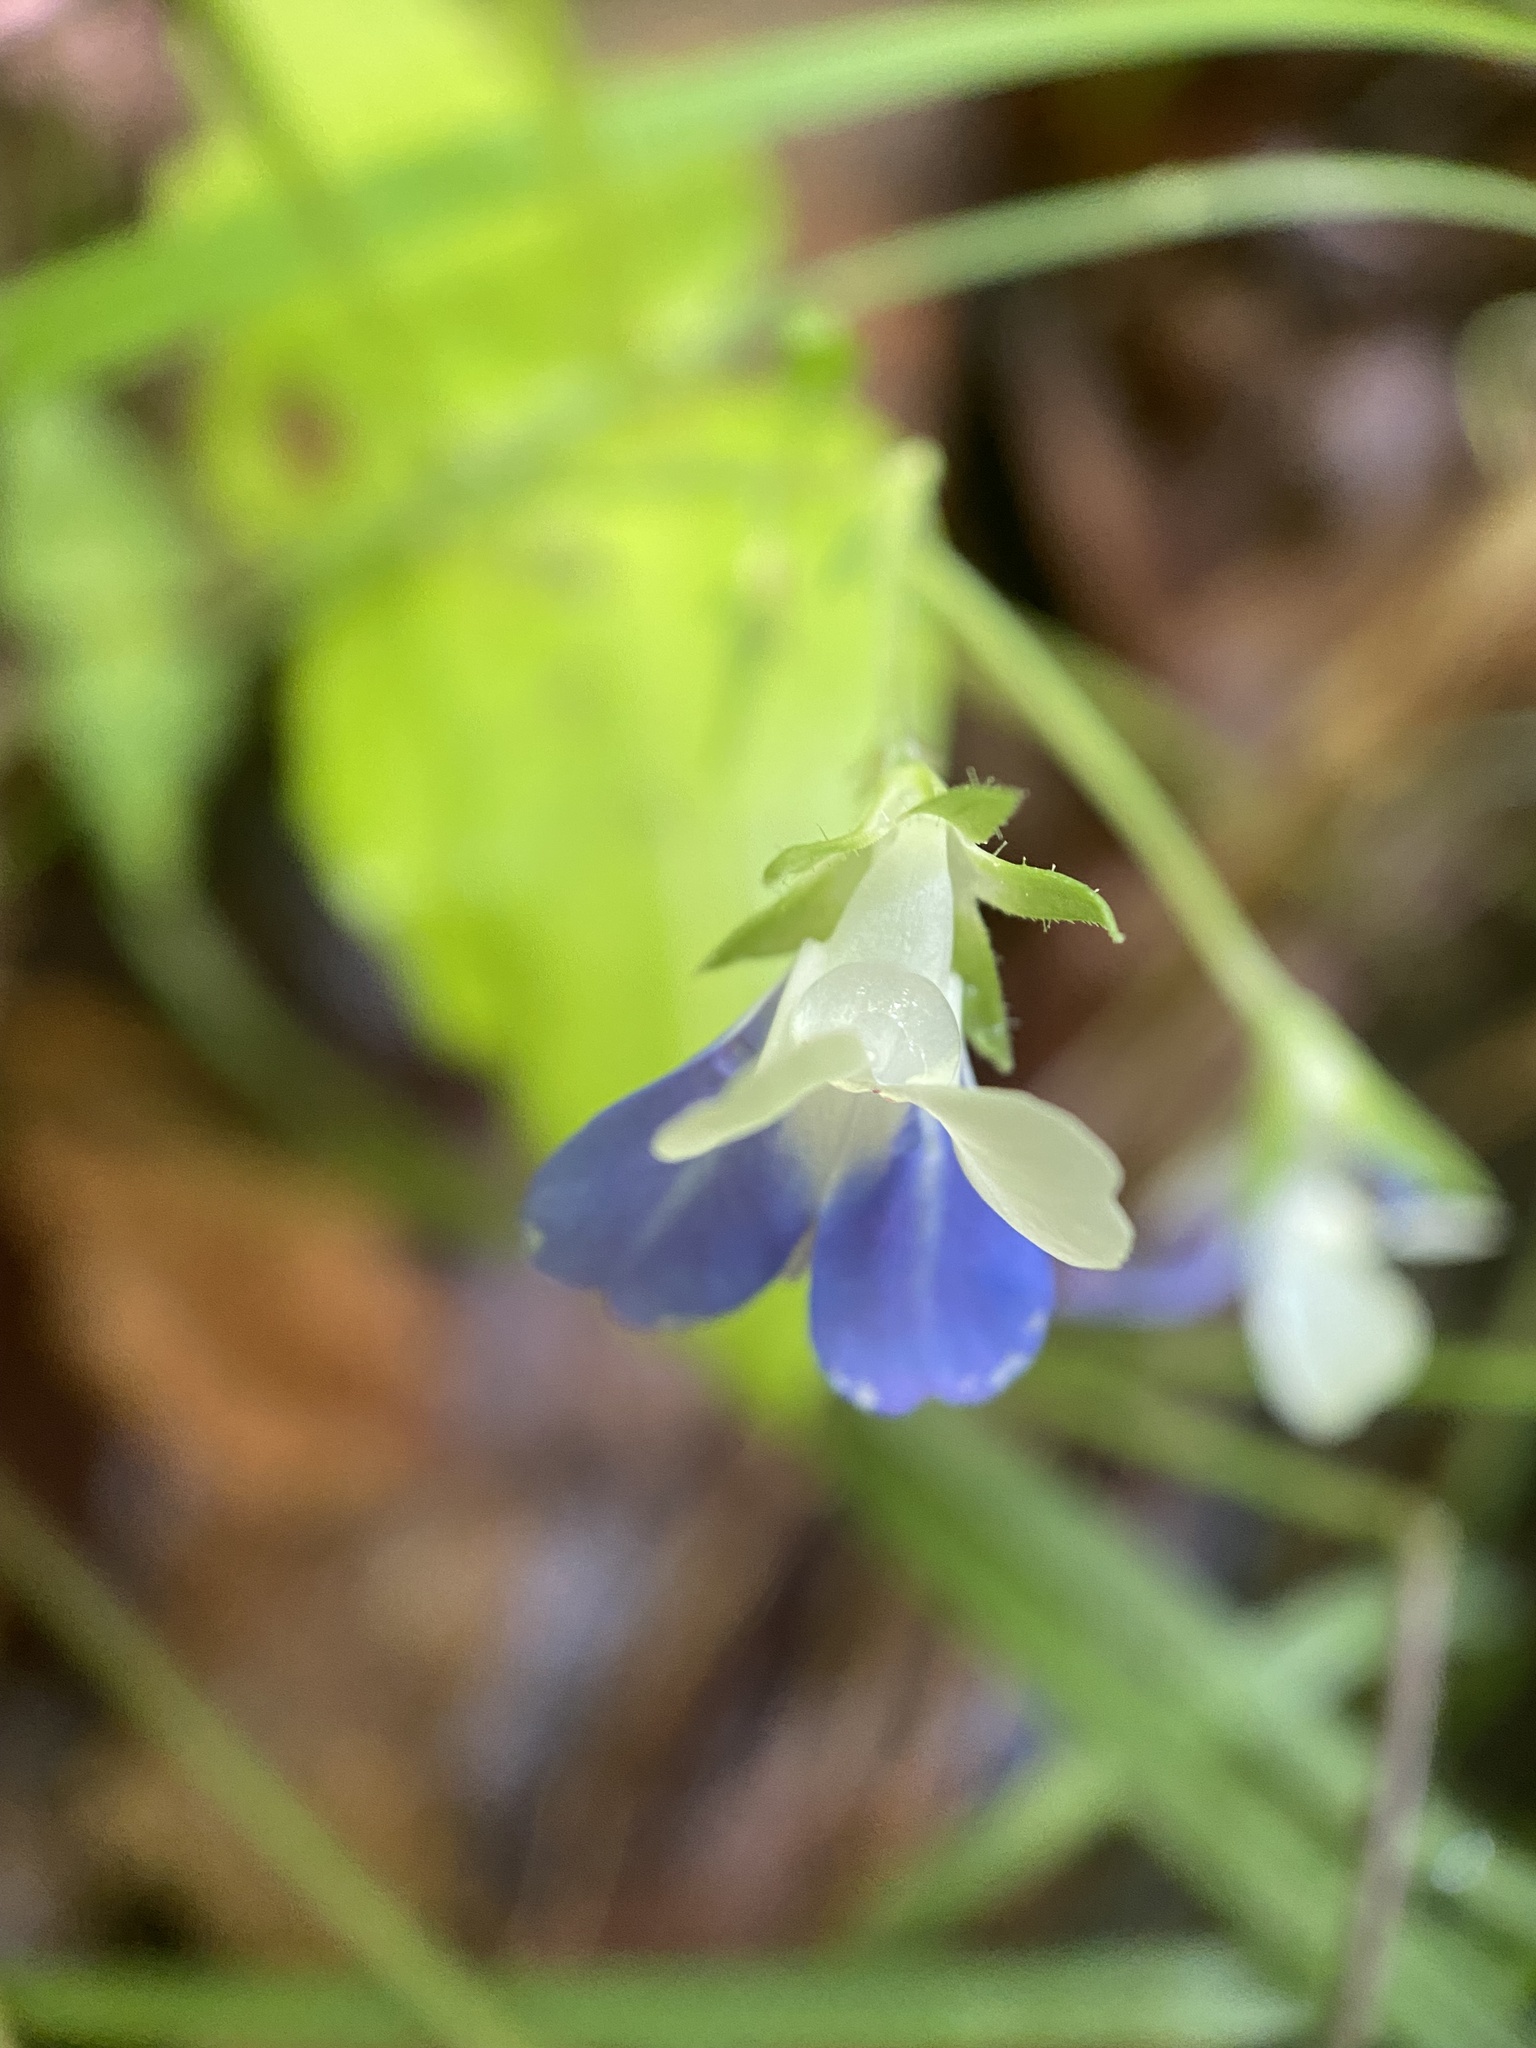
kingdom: Plantae
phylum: Tracheophyta
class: Magnoliopsida
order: Lamiales
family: Plantaginaceae
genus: Collinsia
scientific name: Collinsia verna
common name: Broad-leaved collinsia
